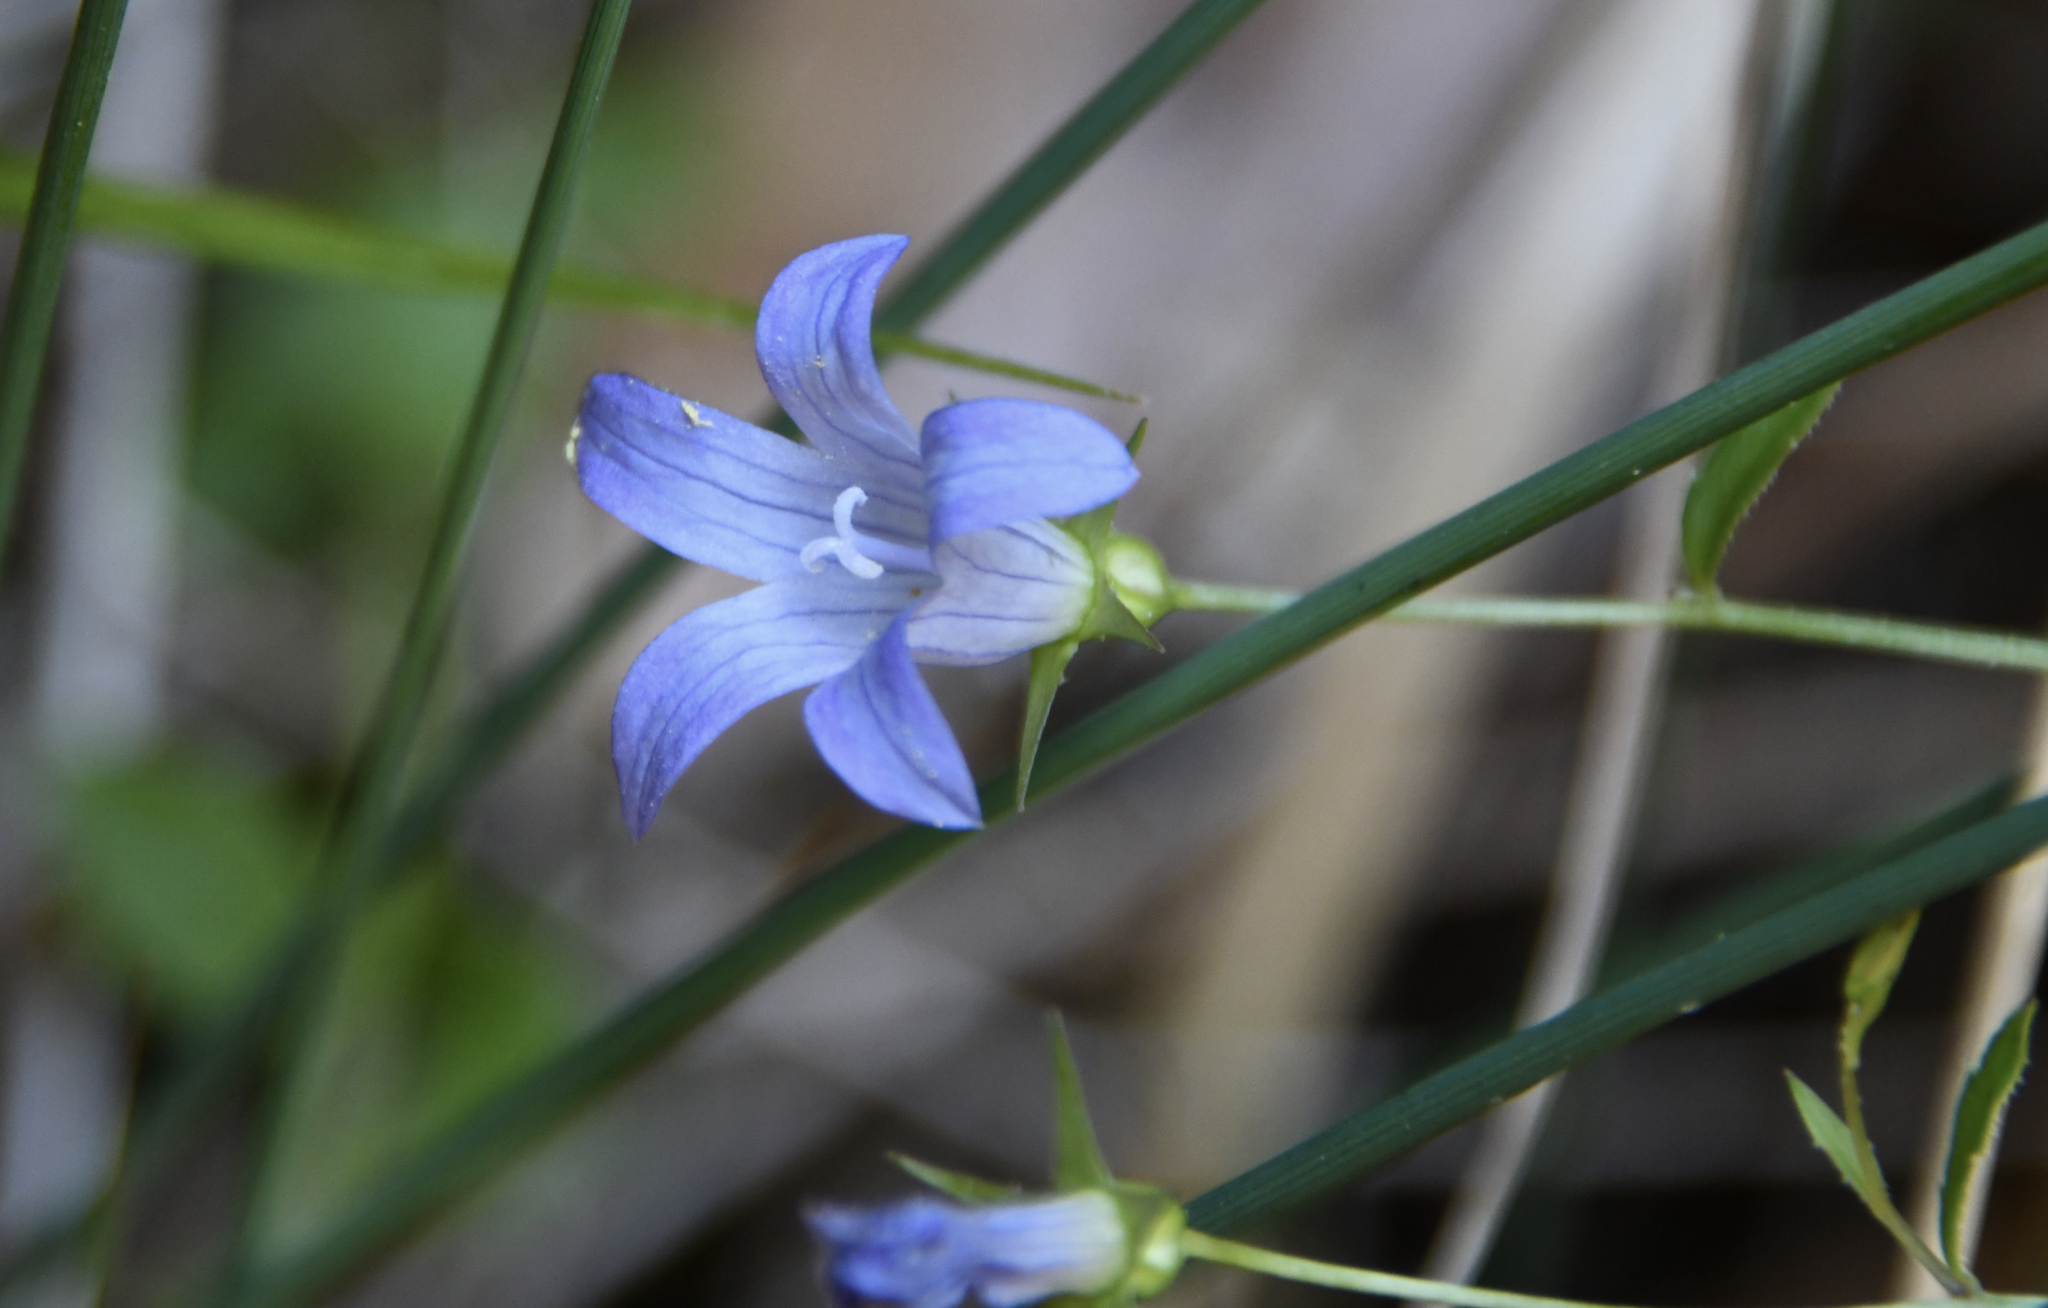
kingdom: Plantae
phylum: Tracheophyta
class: Magnoliopsida
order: Asterales
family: Campanulaceae
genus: Eastwoodiella
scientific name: Eastwoodiella californica
